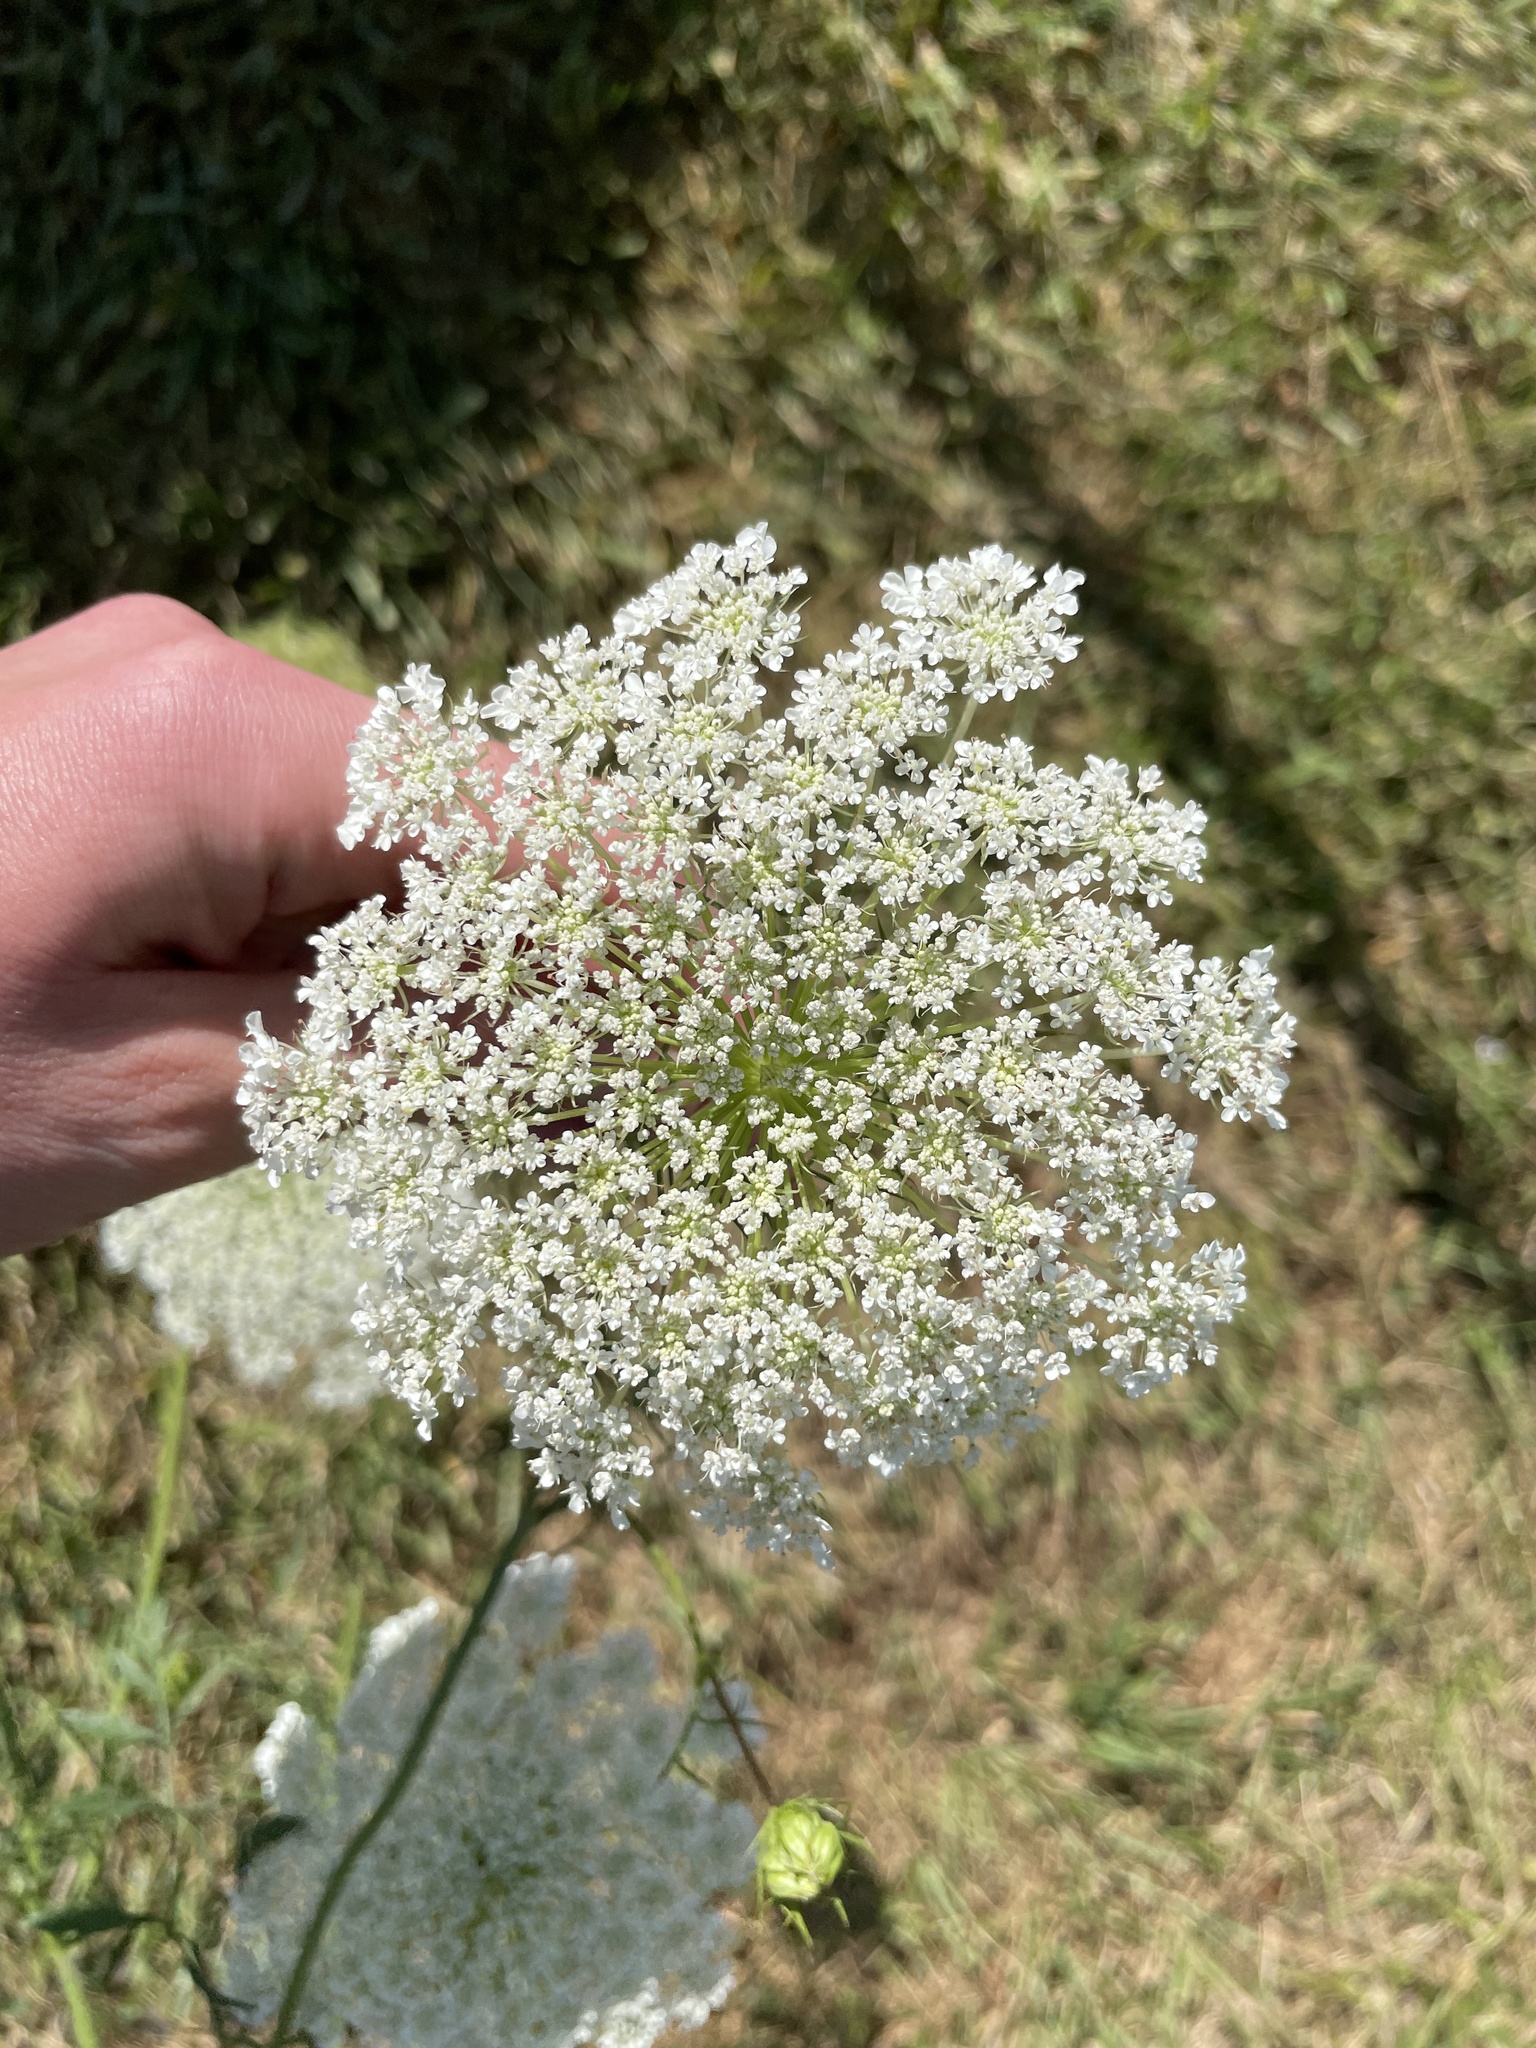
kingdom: Plantae
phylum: Tracheophyta
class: Magnoliopsida
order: Apiales
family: Apiaceae
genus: Daucus
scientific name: Daucus carota
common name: Wild carrot
